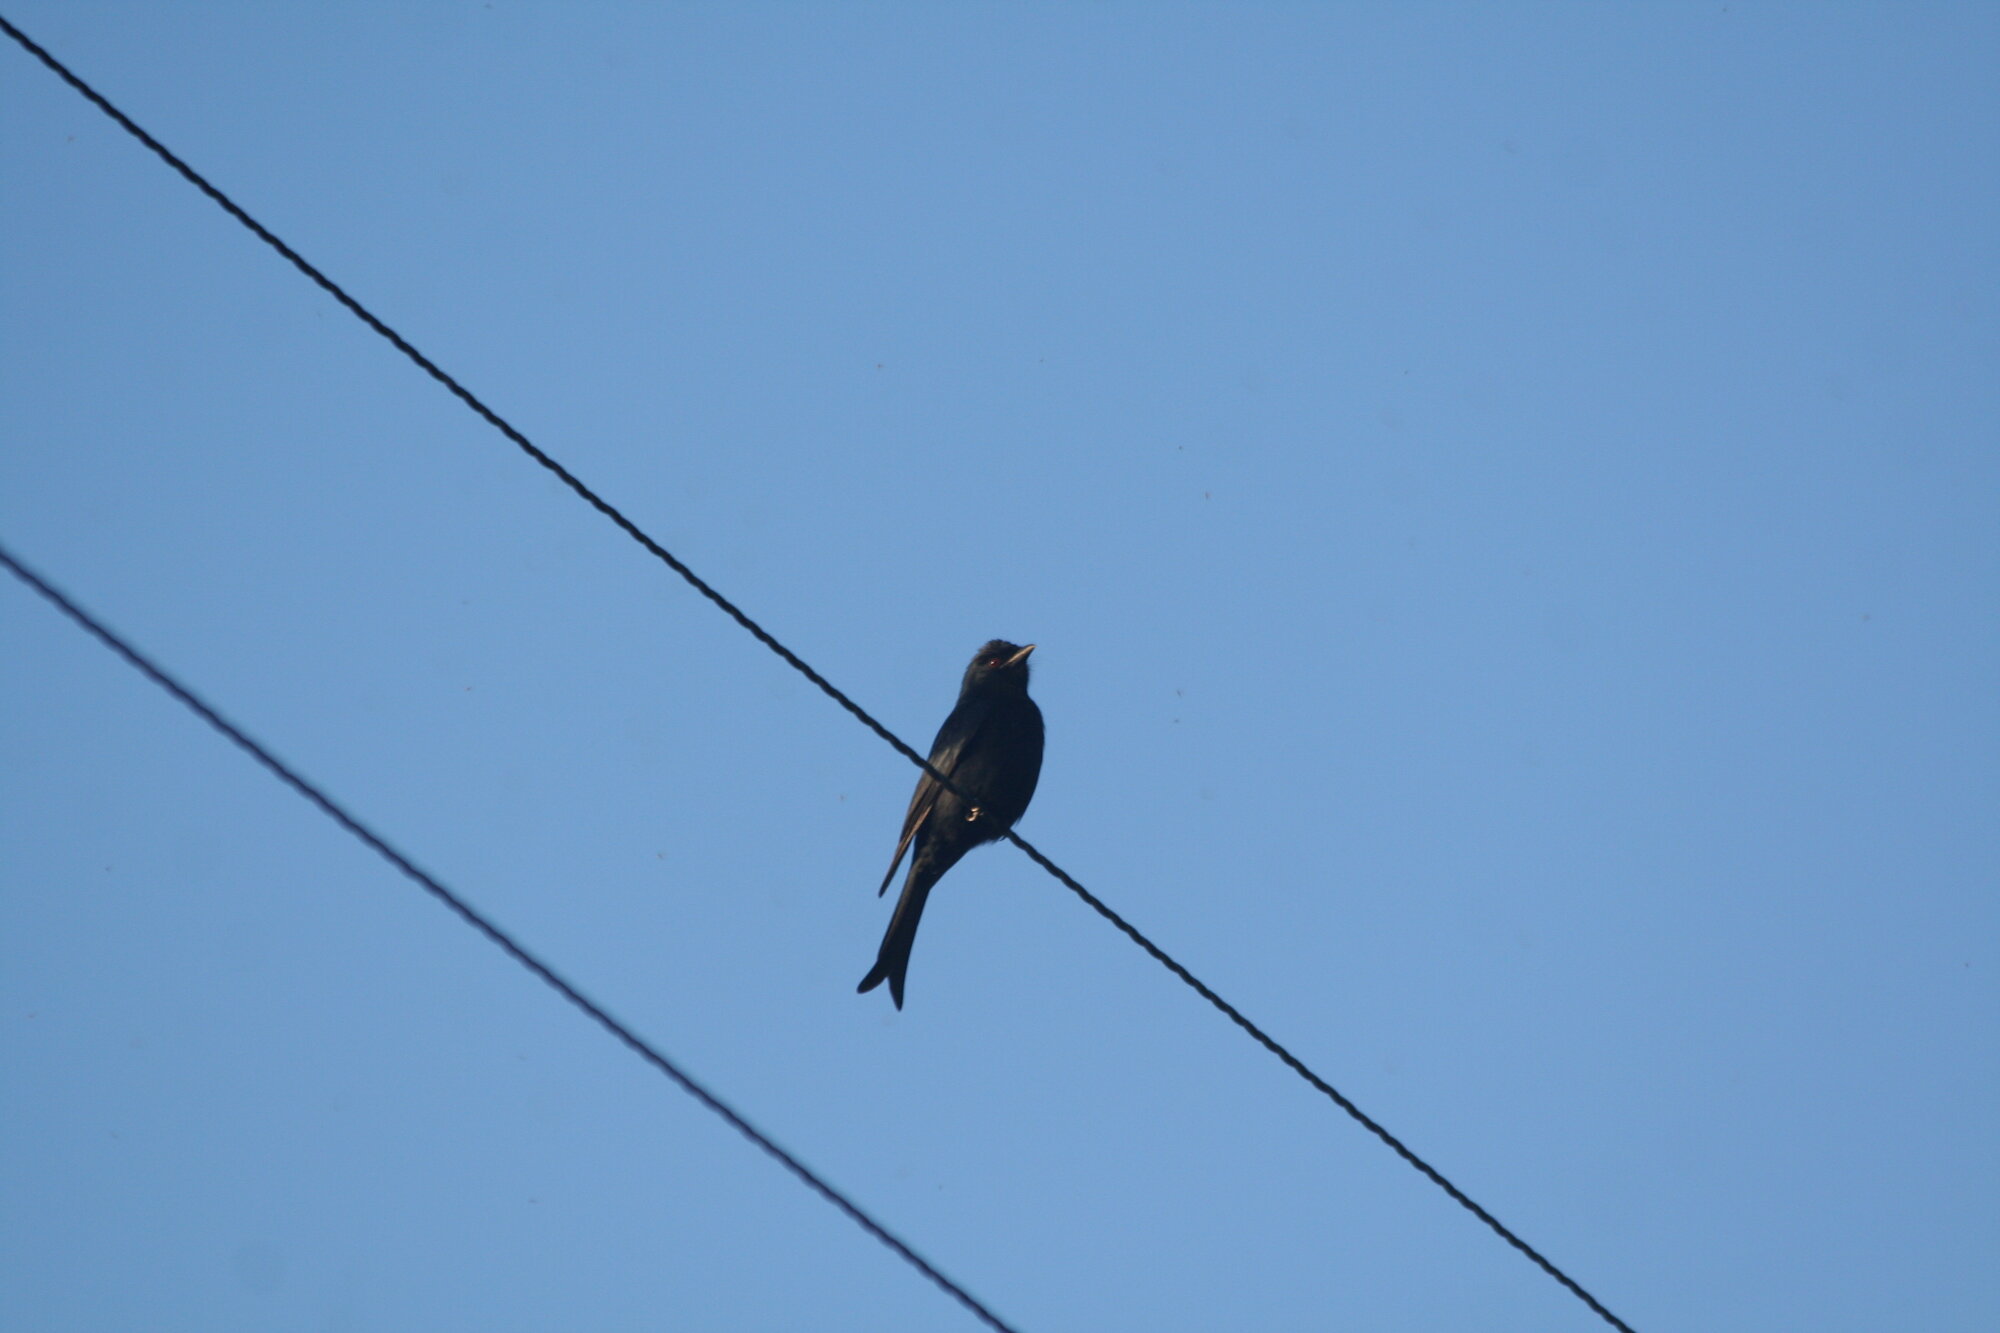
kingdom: Animalia
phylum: Chordata
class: Aves
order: Passeriformes
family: Dicruridae
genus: Dicrurus
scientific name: Dicrurus adsimilis
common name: Fork-tailed drongo
